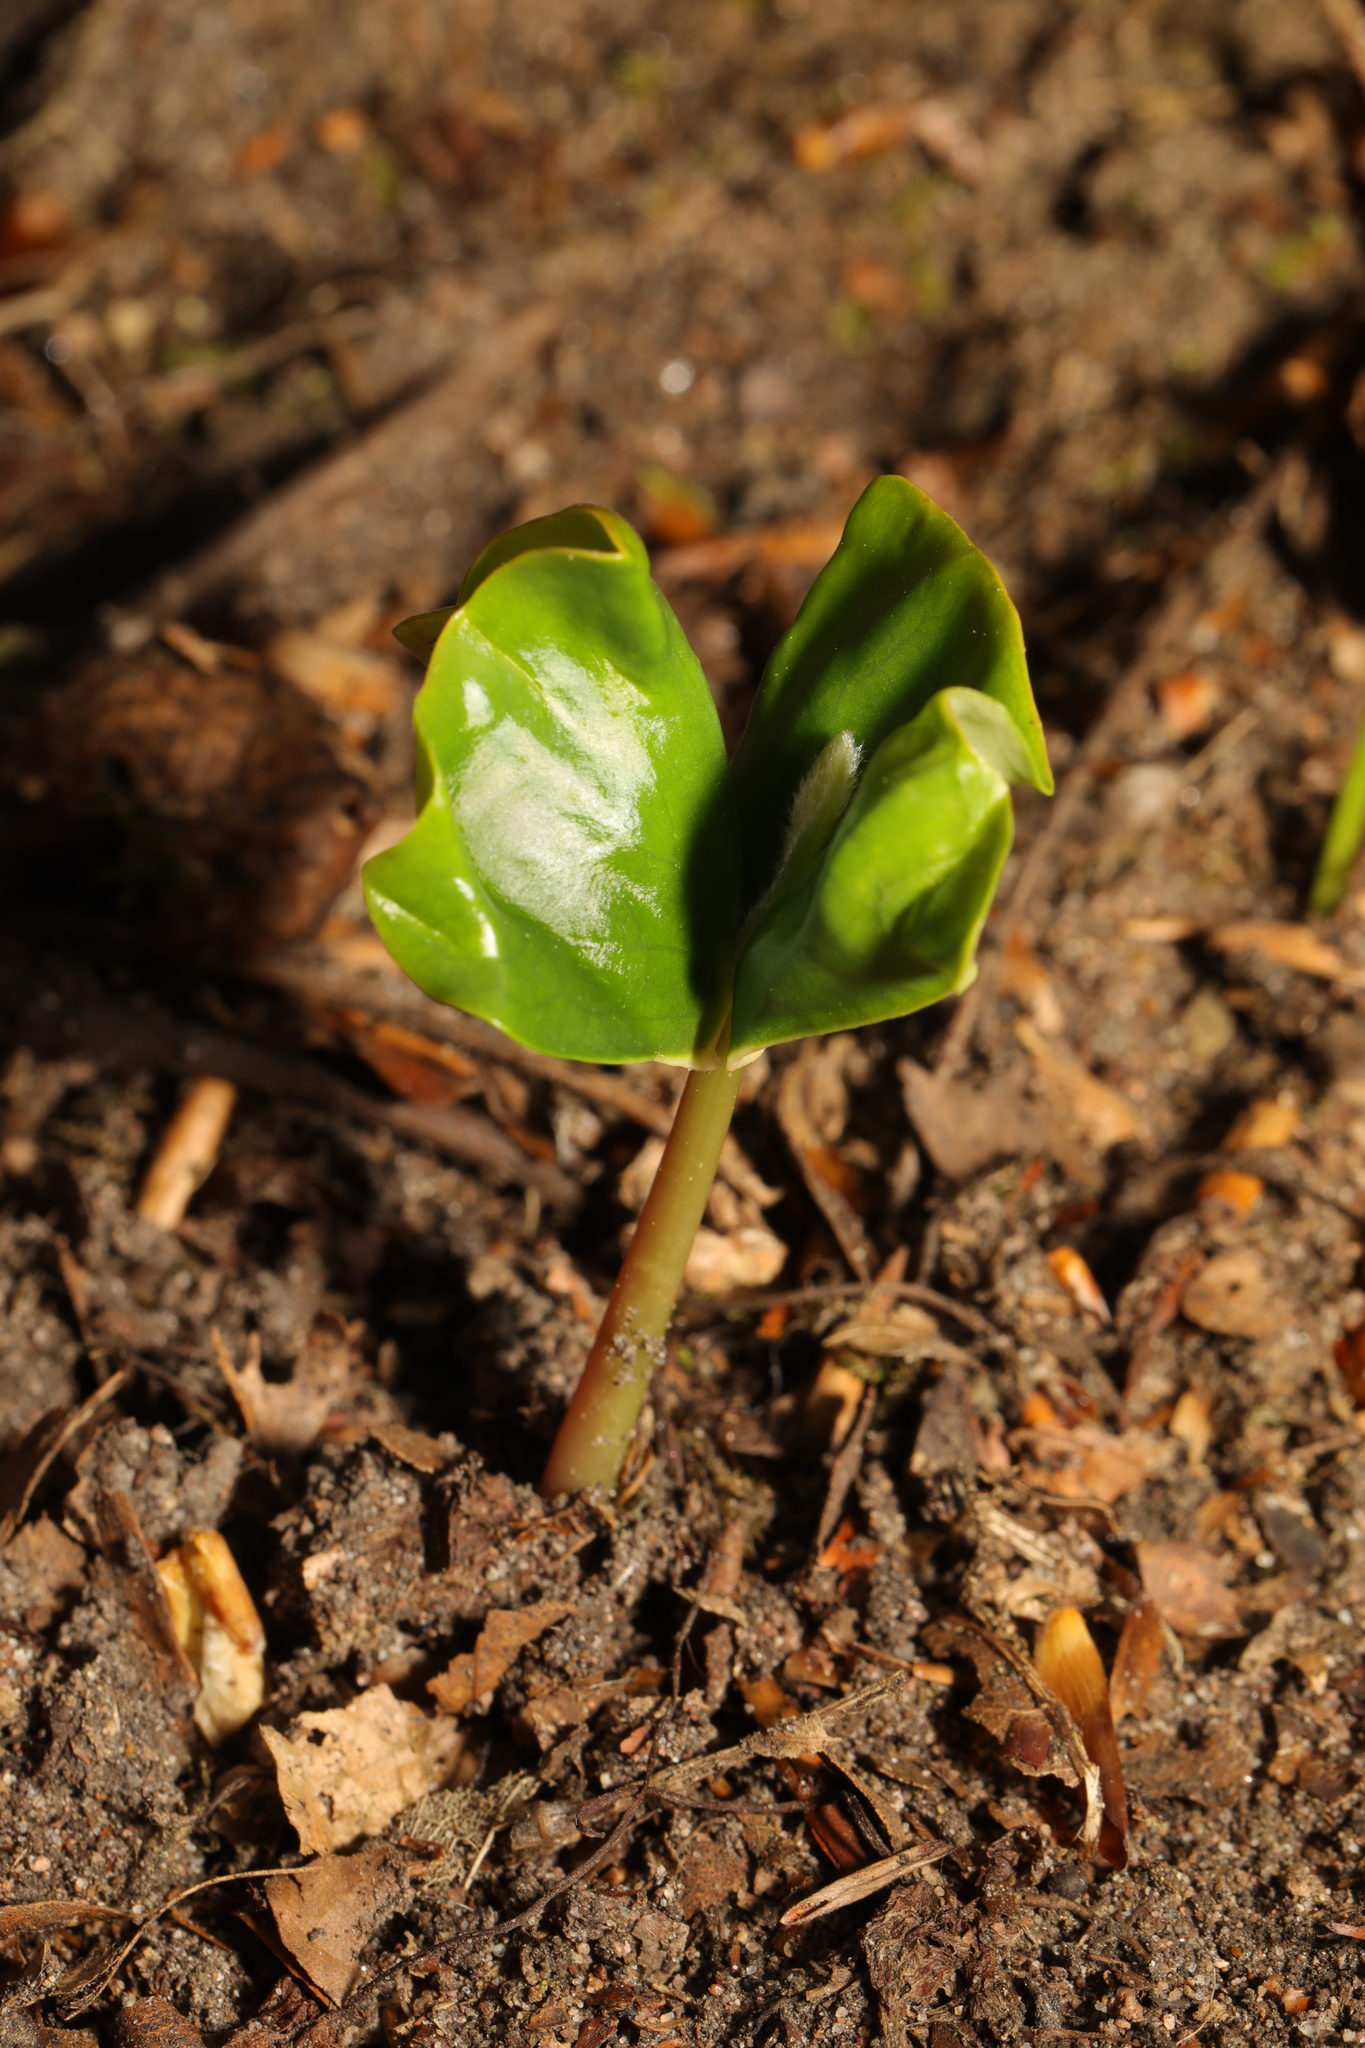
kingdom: Plantae
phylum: Tracheophyta
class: Magnoliopsida
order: Fagales
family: Fagaceae
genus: Fagus
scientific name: Fagus sylvatica
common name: Beech
